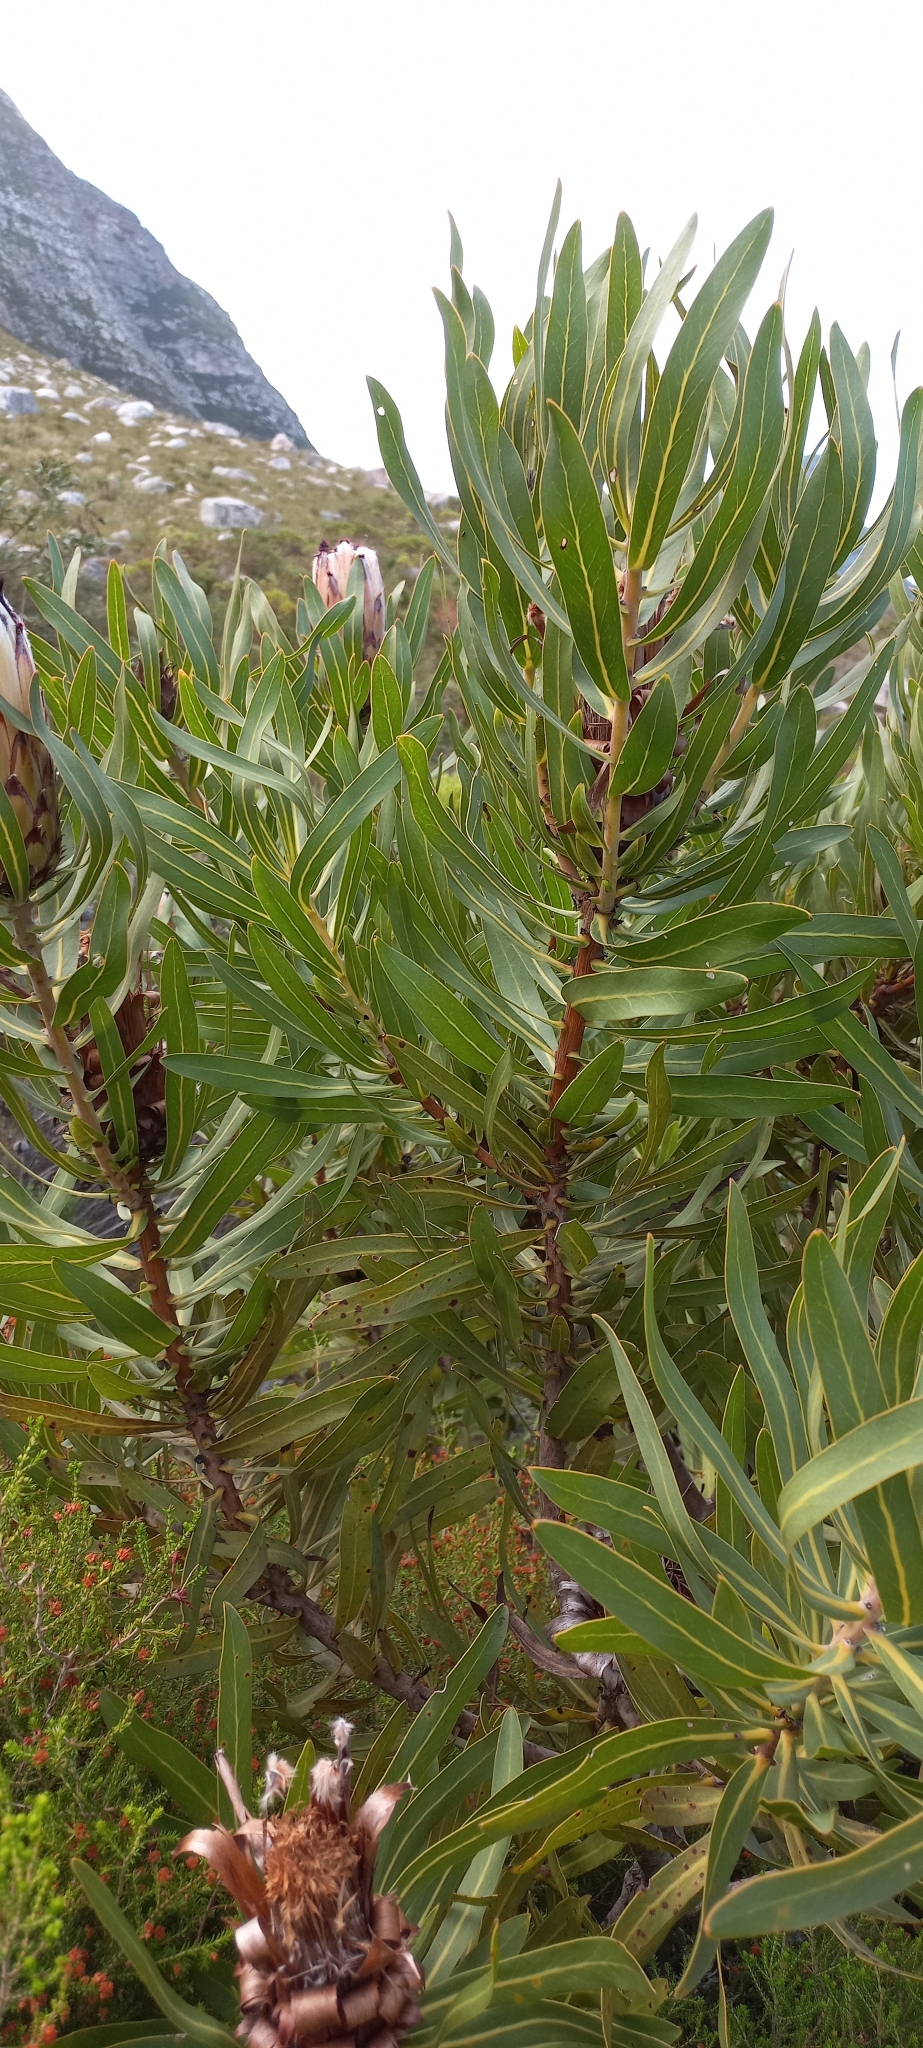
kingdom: Plantae
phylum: Tracheophyta
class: Magnoliopsida
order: Proteales
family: Proteaceae
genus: Protea
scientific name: Protea neriifolia
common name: Blue sugarbush
